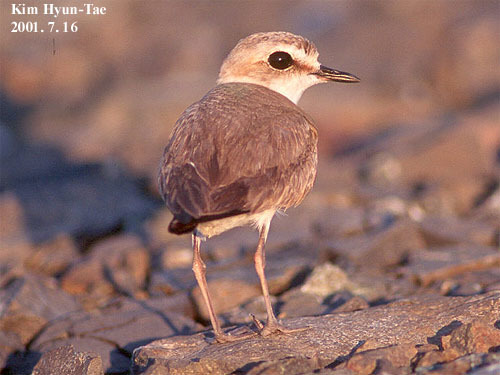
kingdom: Animalia
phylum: Chordata
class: Aves
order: Charadriiformes
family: Charadriidae
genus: Charadrius
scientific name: Charadrius alexandrinus
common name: Kentish plover
